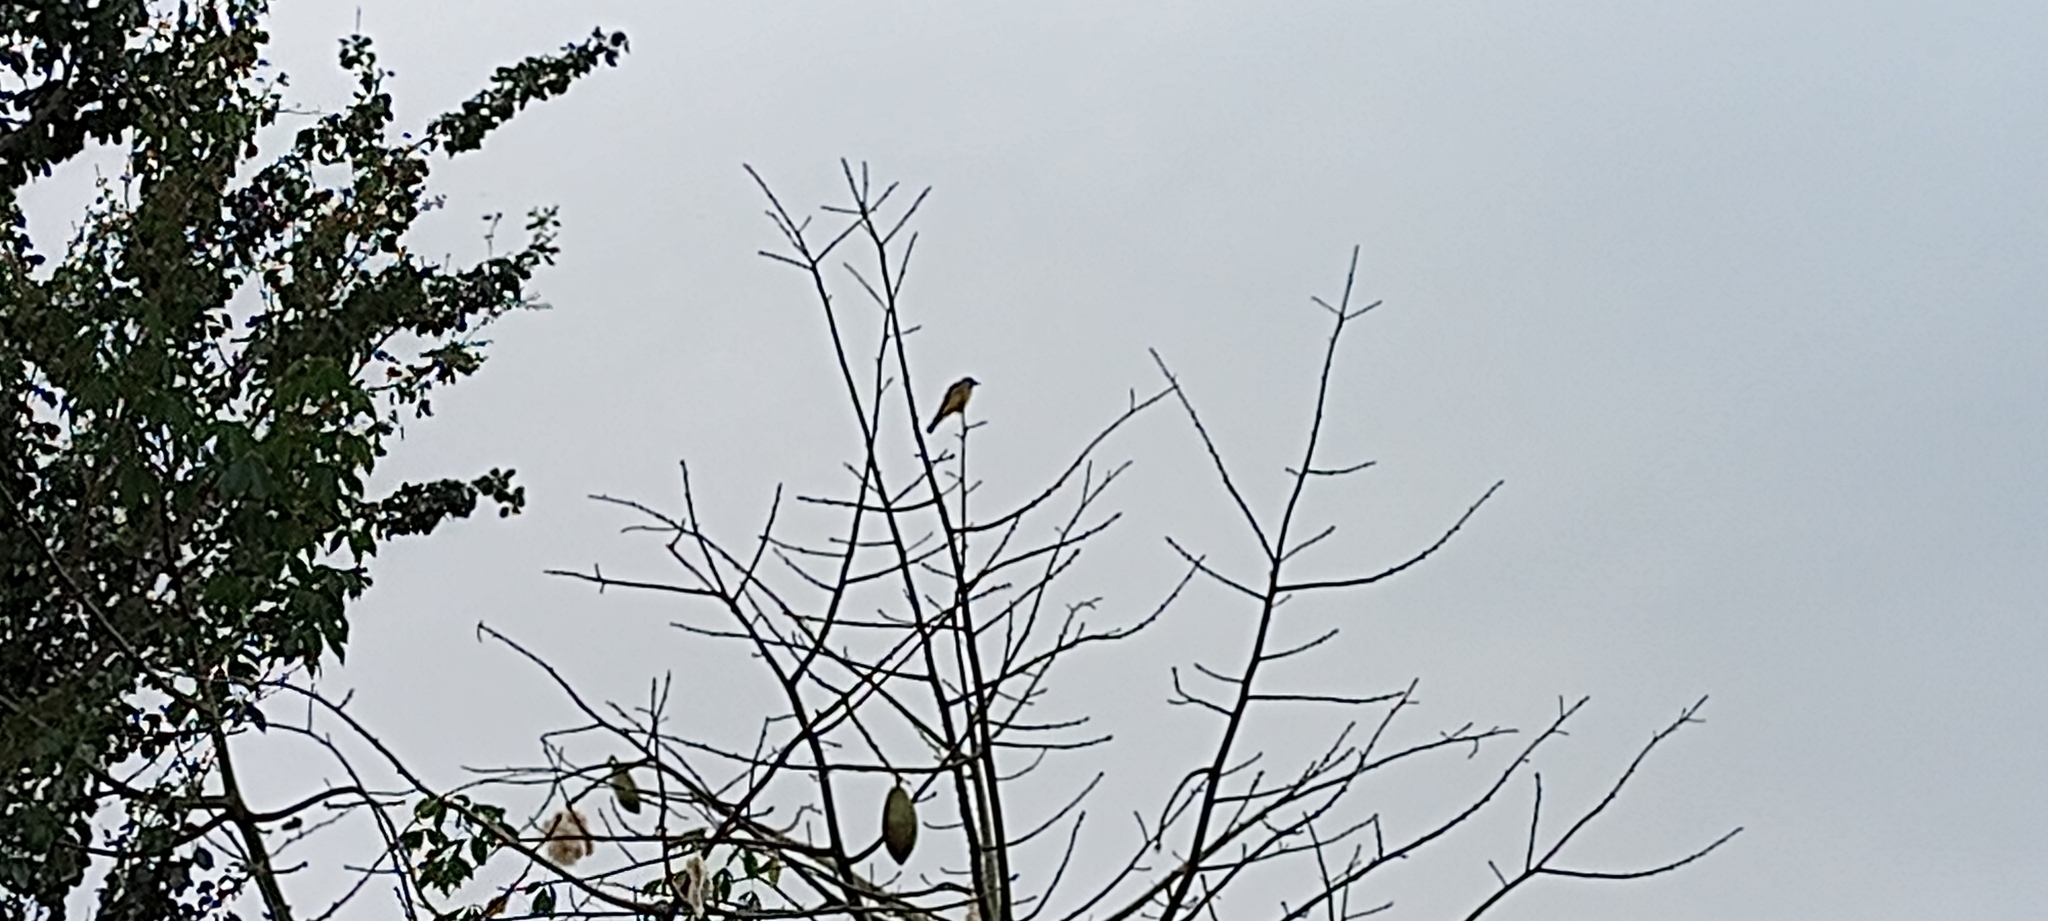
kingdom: Animalia
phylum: Chordata
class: Aves
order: Passeriformes
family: Tyrannidae
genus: Tyrannus
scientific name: Tyrannus vociferans
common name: Cassin's kingbird
